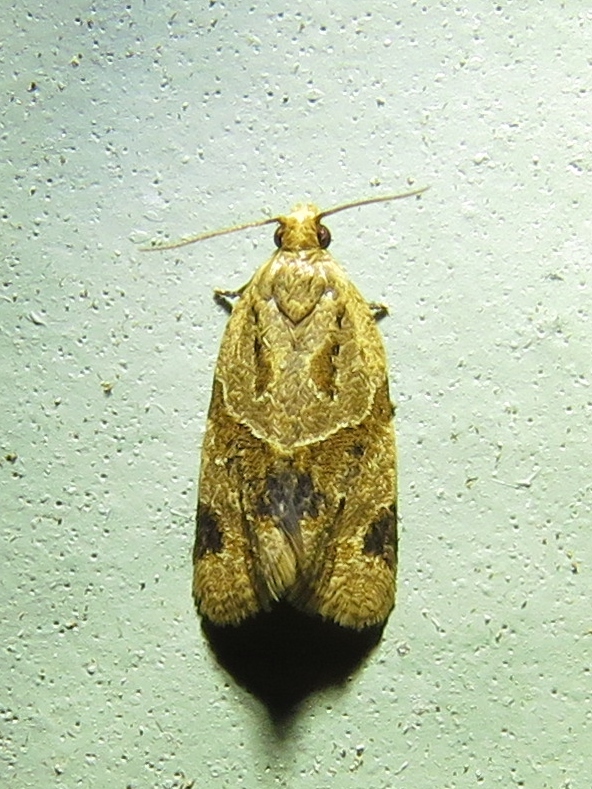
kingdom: Animalia
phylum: Arthropoda
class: Insecta
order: Lepidoptera
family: Tortricidae
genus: Clepsis
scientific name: Clepsis peritana
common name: Garden tortrix
